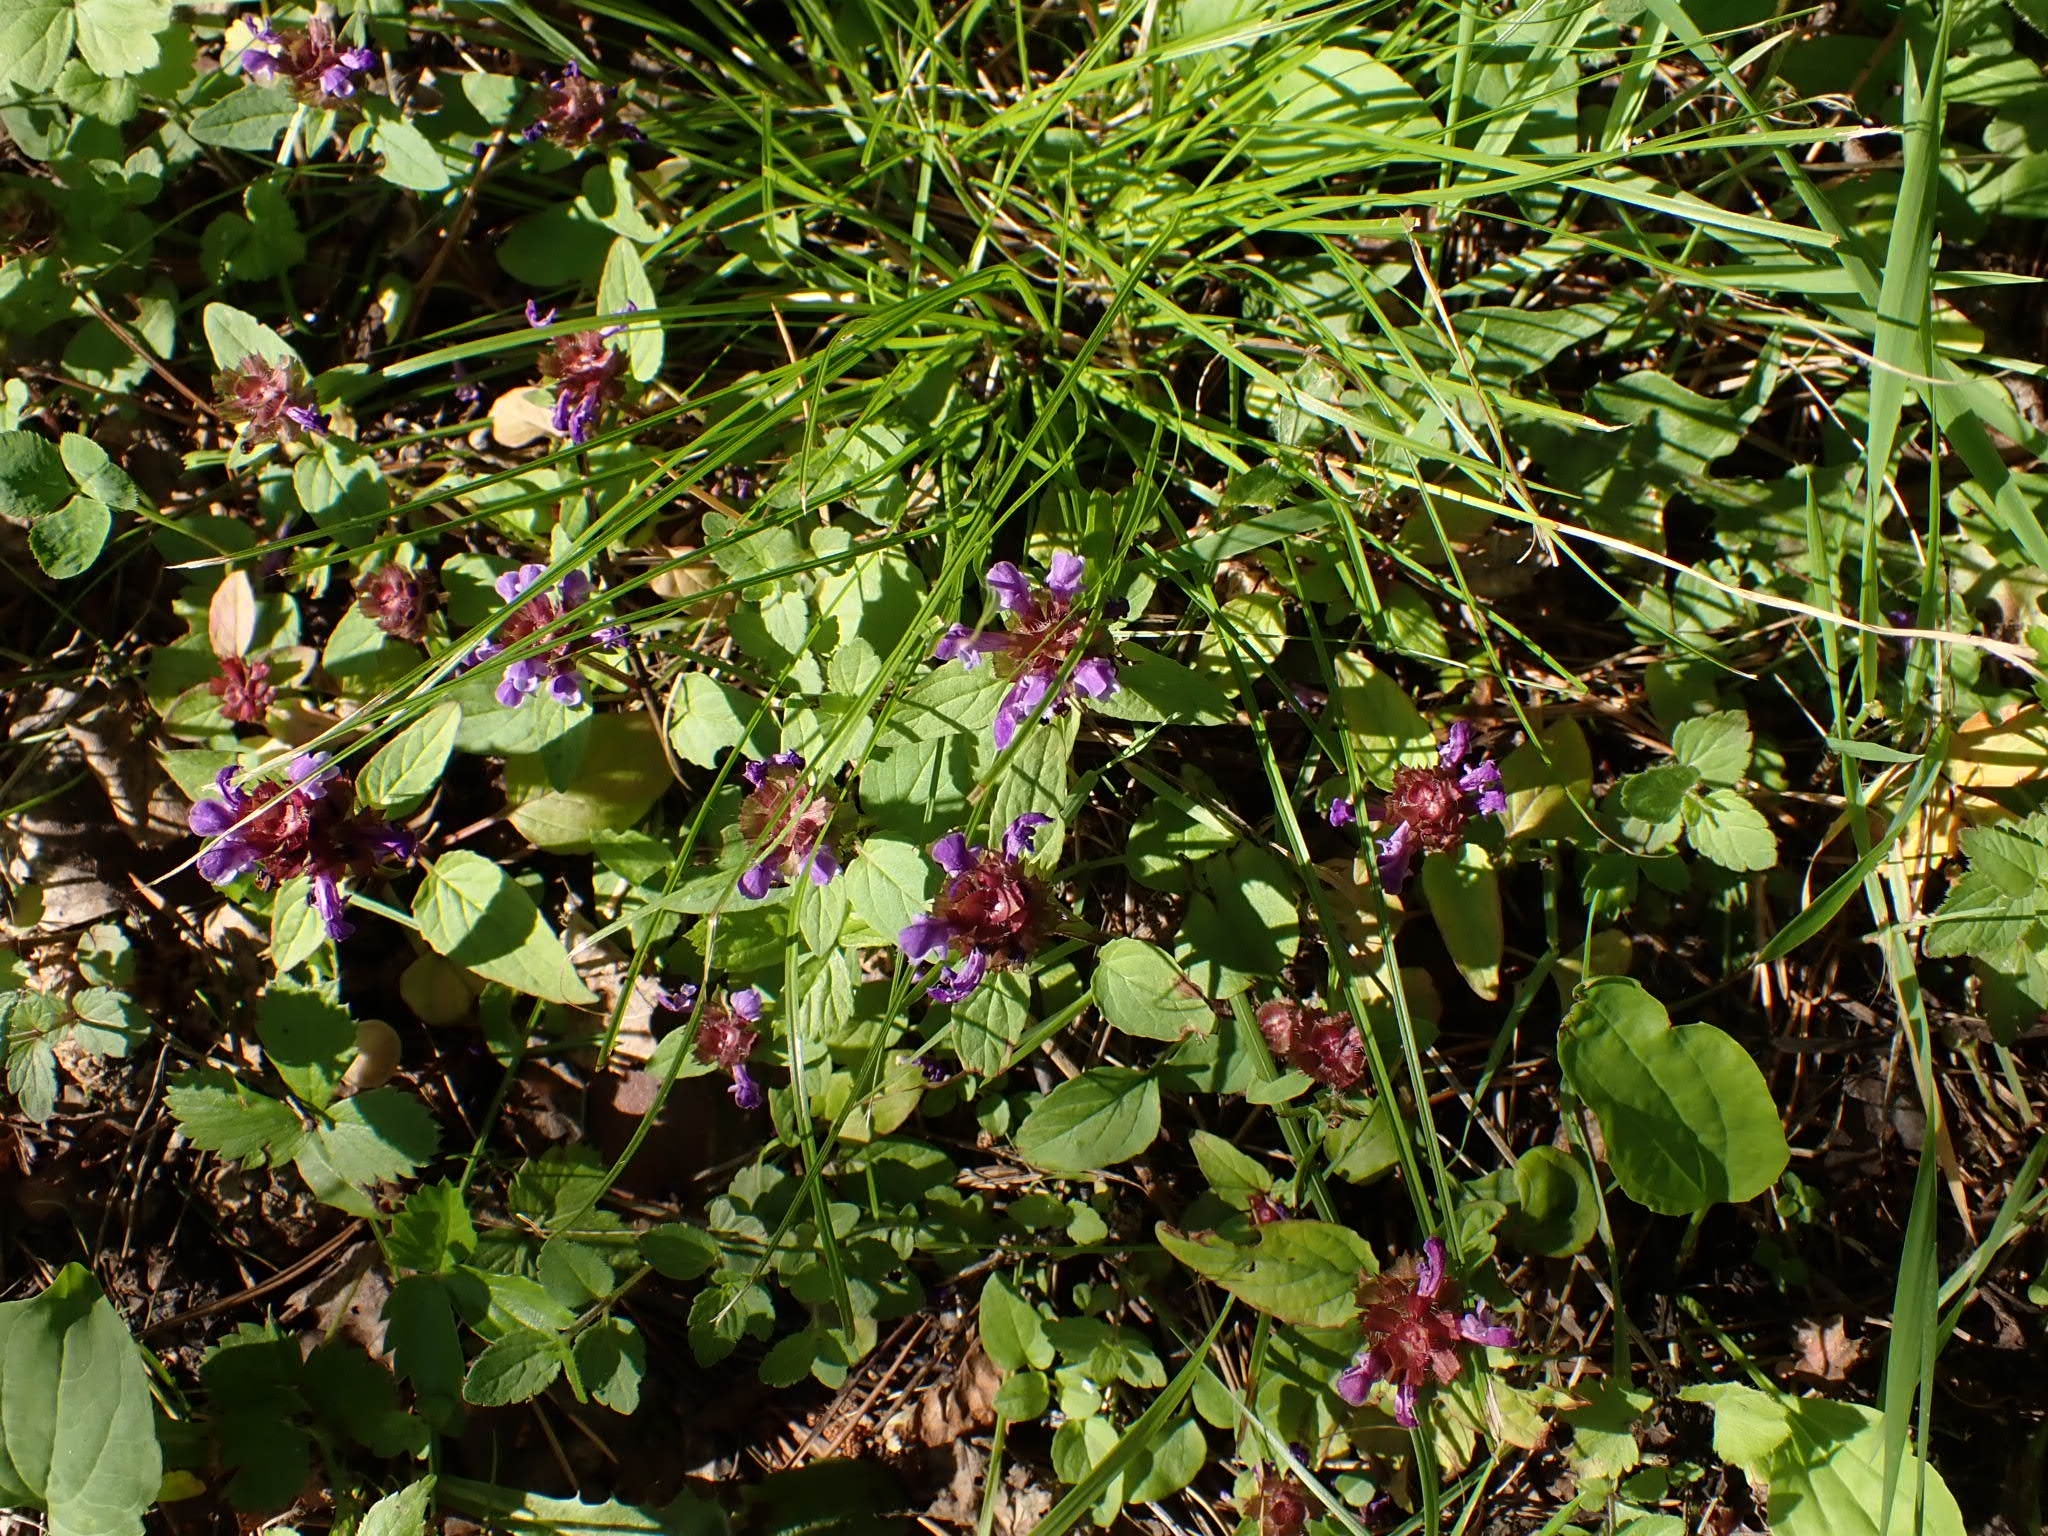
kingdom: Plantae
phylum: Tracheophyta
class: Magnoliopsida
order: Lamiales
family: Lamiaceae
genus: Prunella
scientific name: Prunella vulgaris
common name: Heal-all
